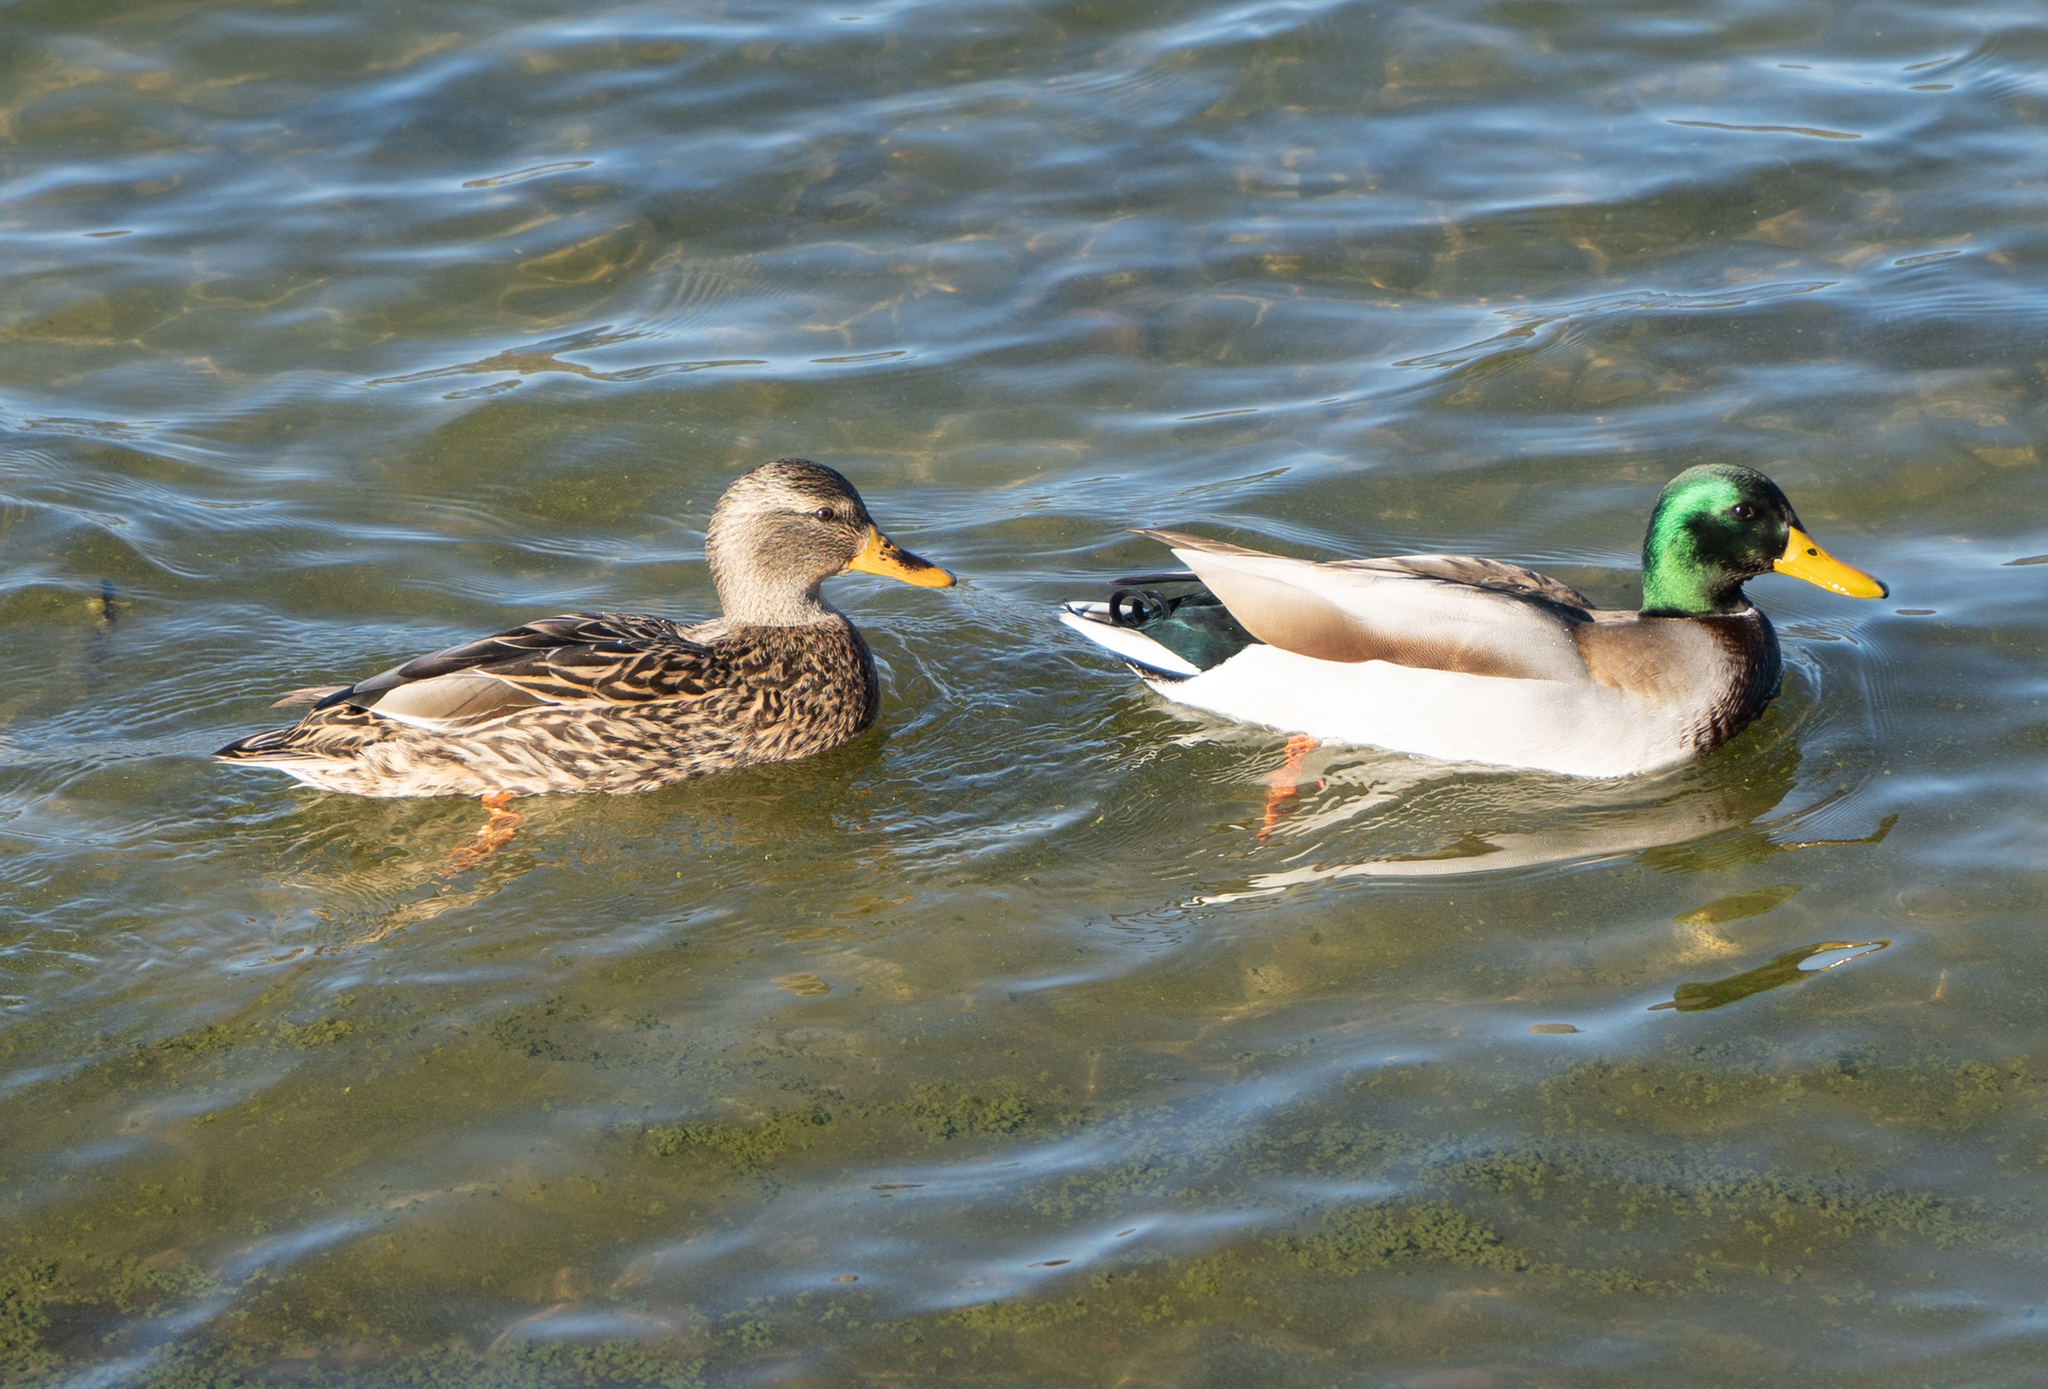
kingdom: Animalia
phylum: Chordata
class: Aves
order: Anseriformes
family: Anatidae
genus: Anas
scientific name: Anas platyrhynchos
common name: Mallard
